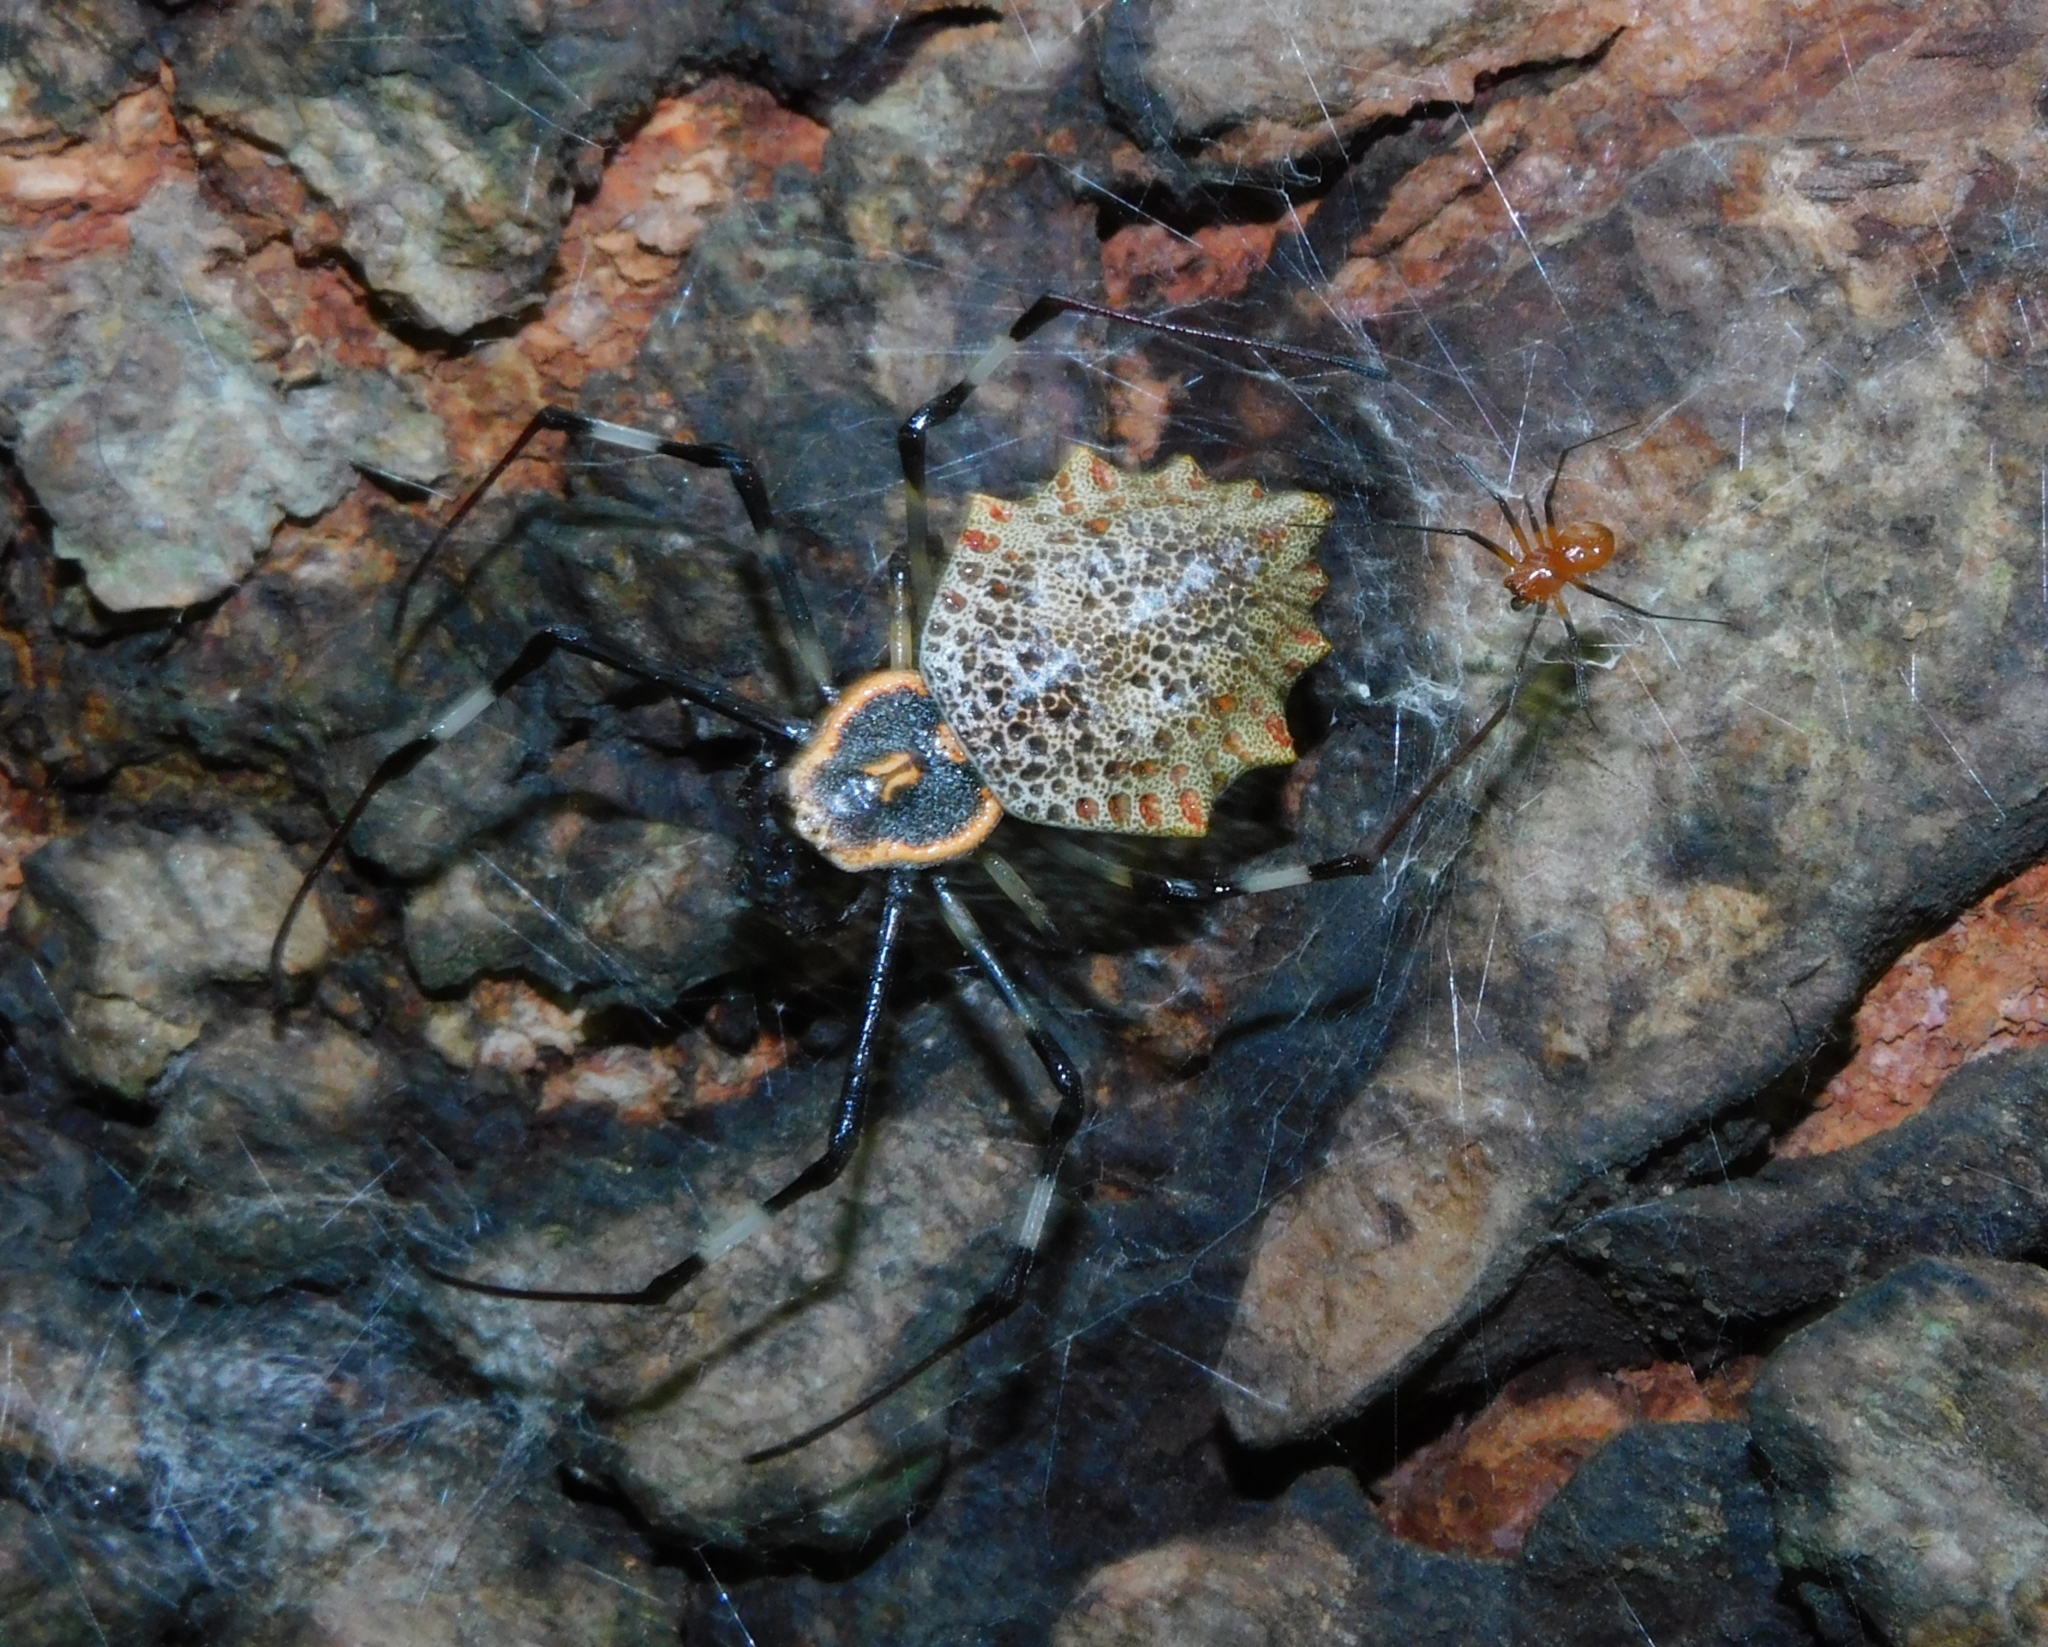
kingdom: Animalia
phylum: Arthropoda
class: Arachnida
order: Araneae
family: Araneidae
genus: Herennia
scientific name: Herennia multipuncta
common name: Spotted coin spider
